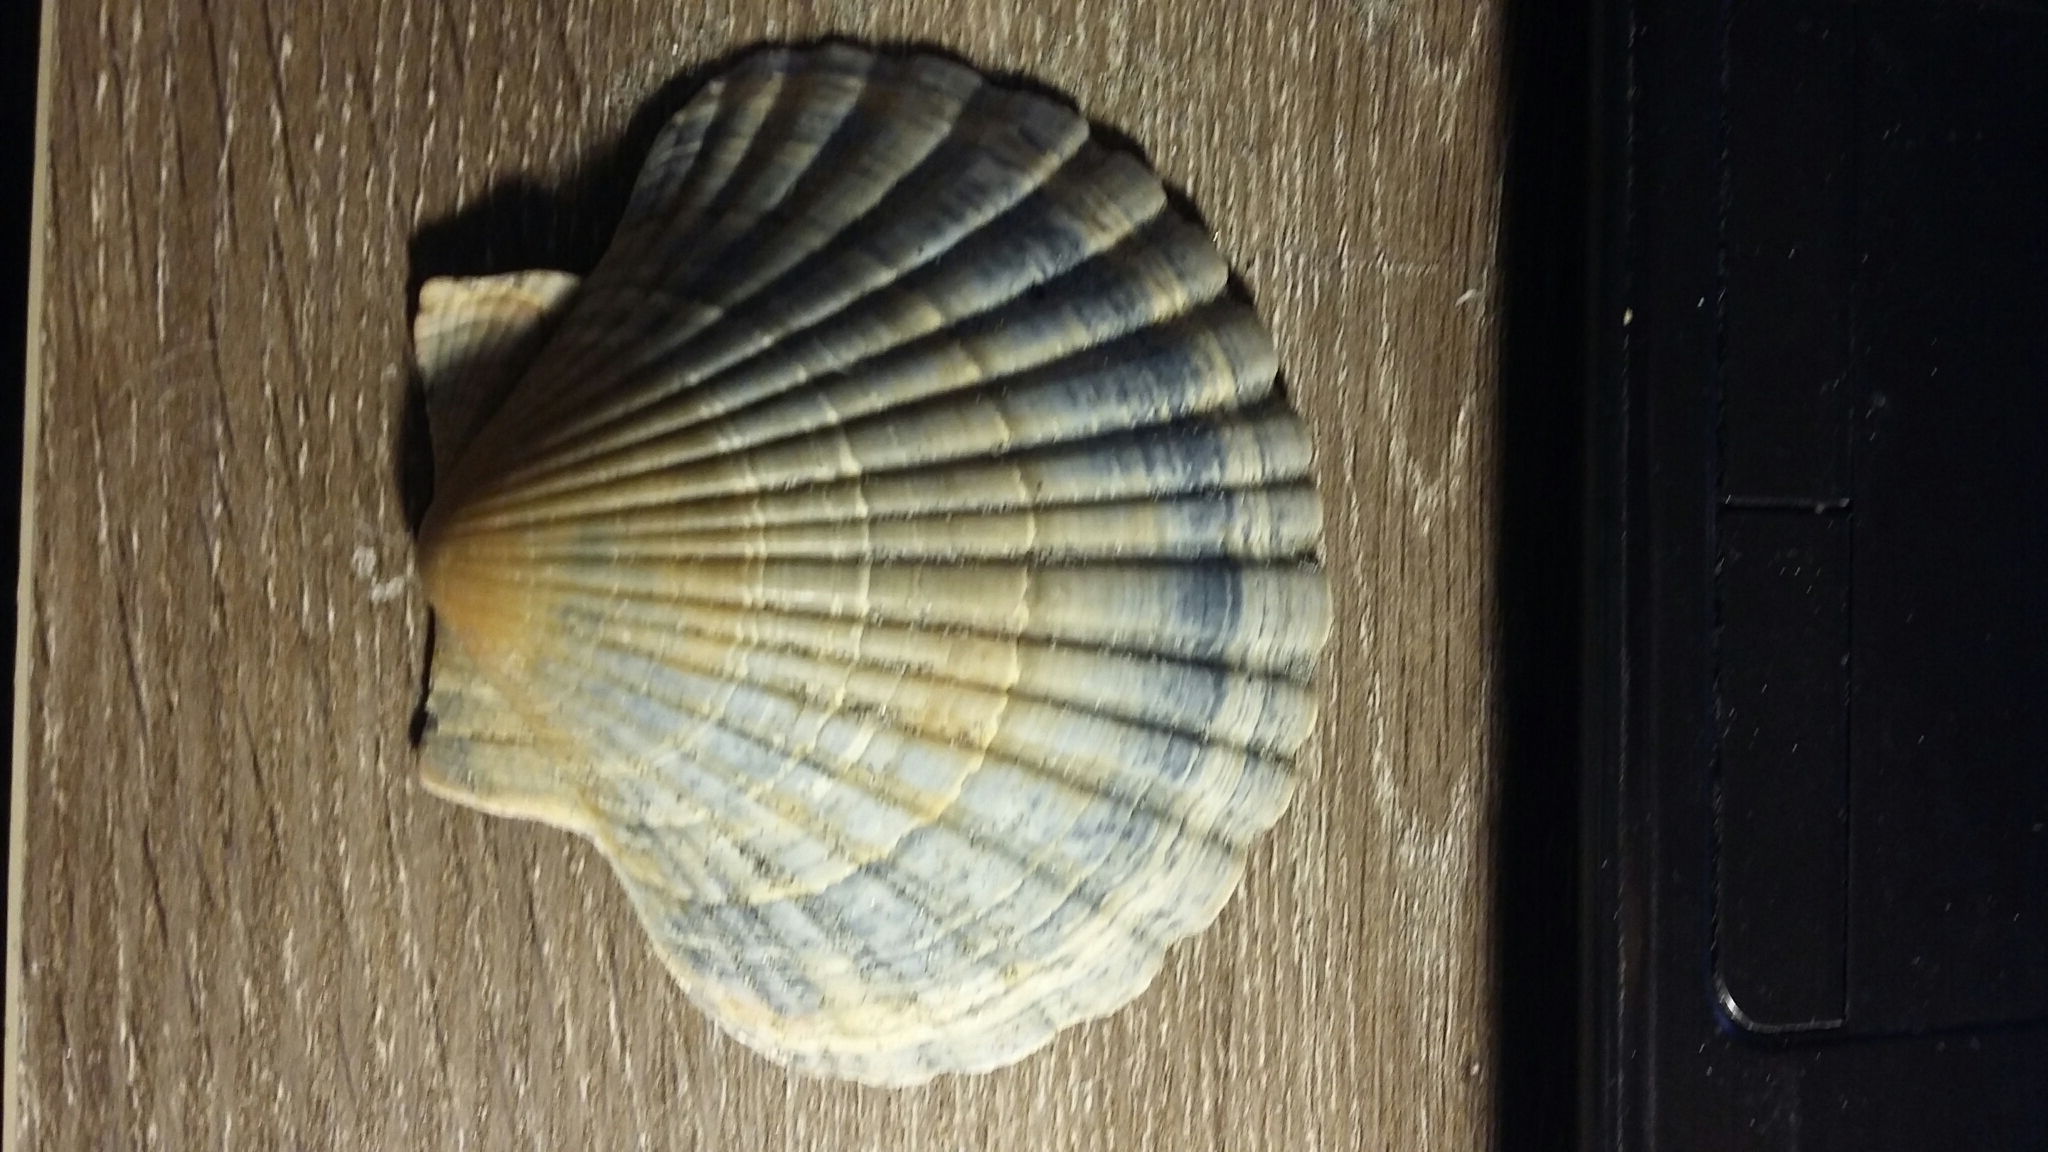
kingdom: Animalia
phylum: Mollusca
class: Bivalvia
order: Pectinida
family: Pectinidae
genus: Pecten
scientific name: Pecten novaezelandiae
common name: New zealand scallop
